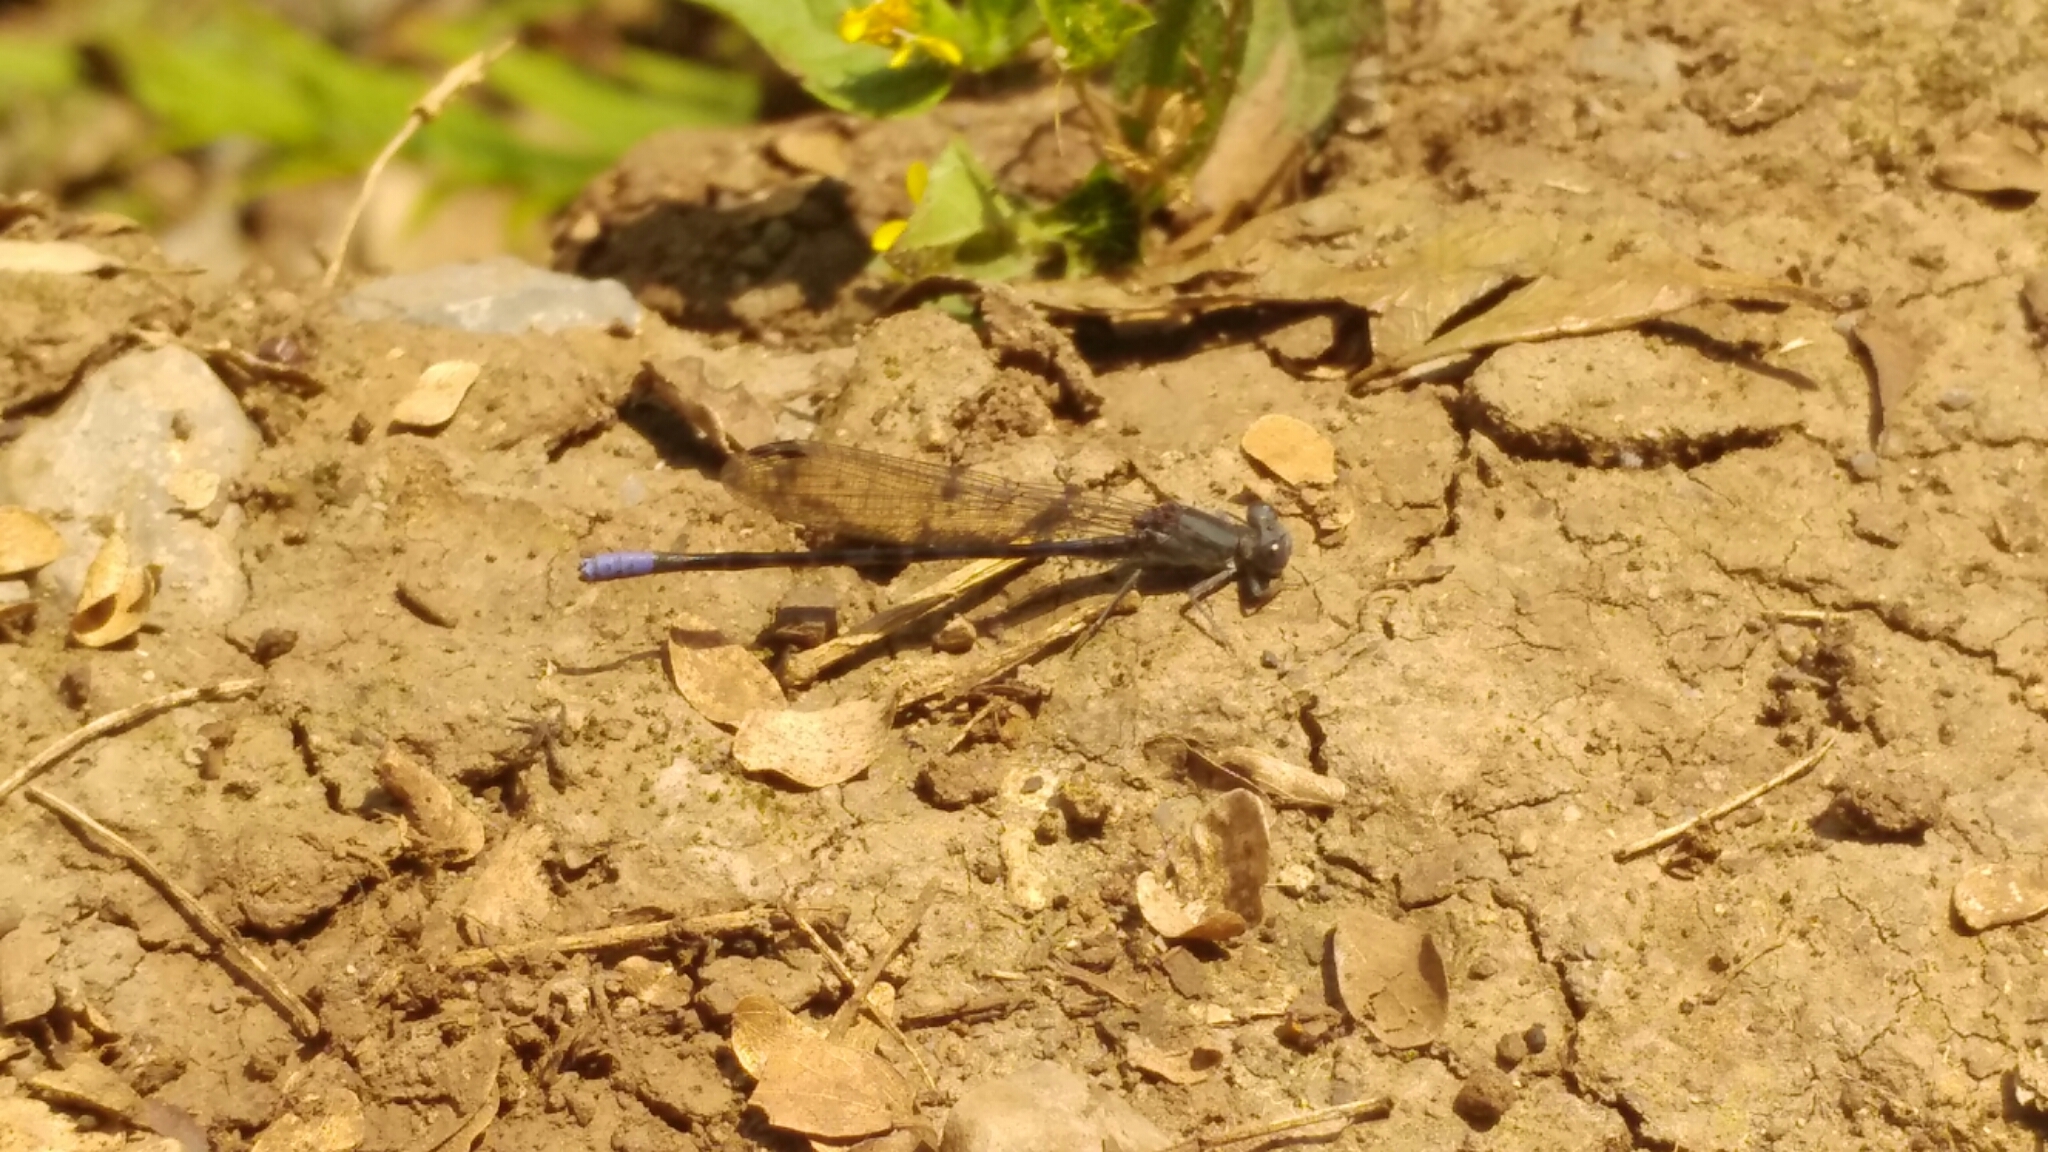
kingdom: Animalia
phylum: Arthropoda
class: Insecta
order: Odonata
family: Coenagrionidae
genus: Argia
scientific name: Argia immunda
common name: Kiowa dancer
